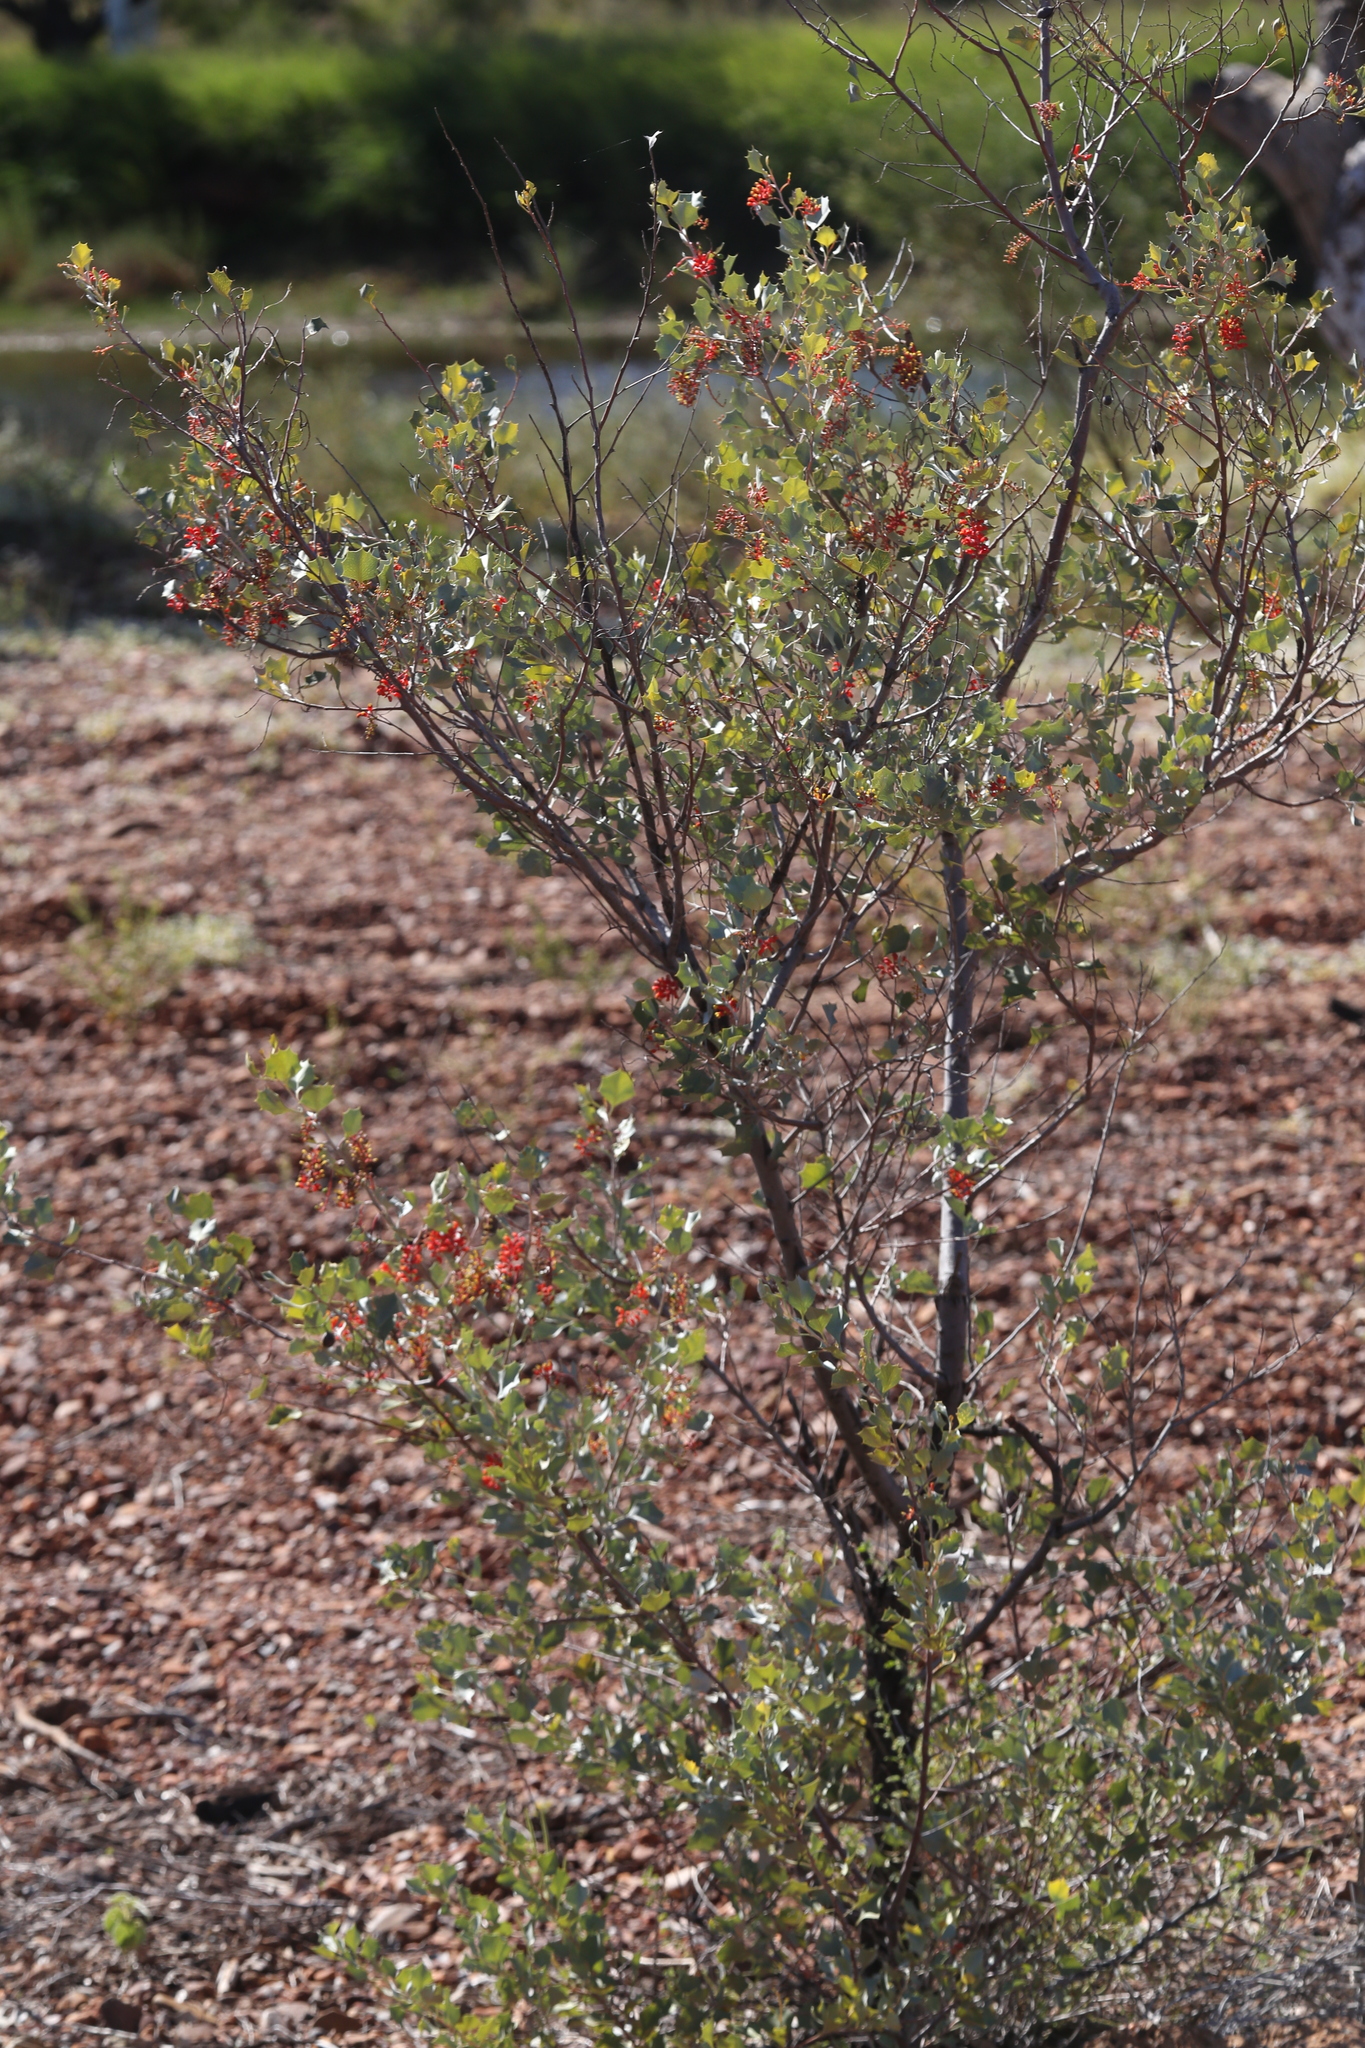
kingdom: Plantae
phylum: Tracheophyta
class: Magnoliopsida
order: Proteales
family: Proteaceae
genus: Grevillea
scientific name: Grevillea wickhamii
